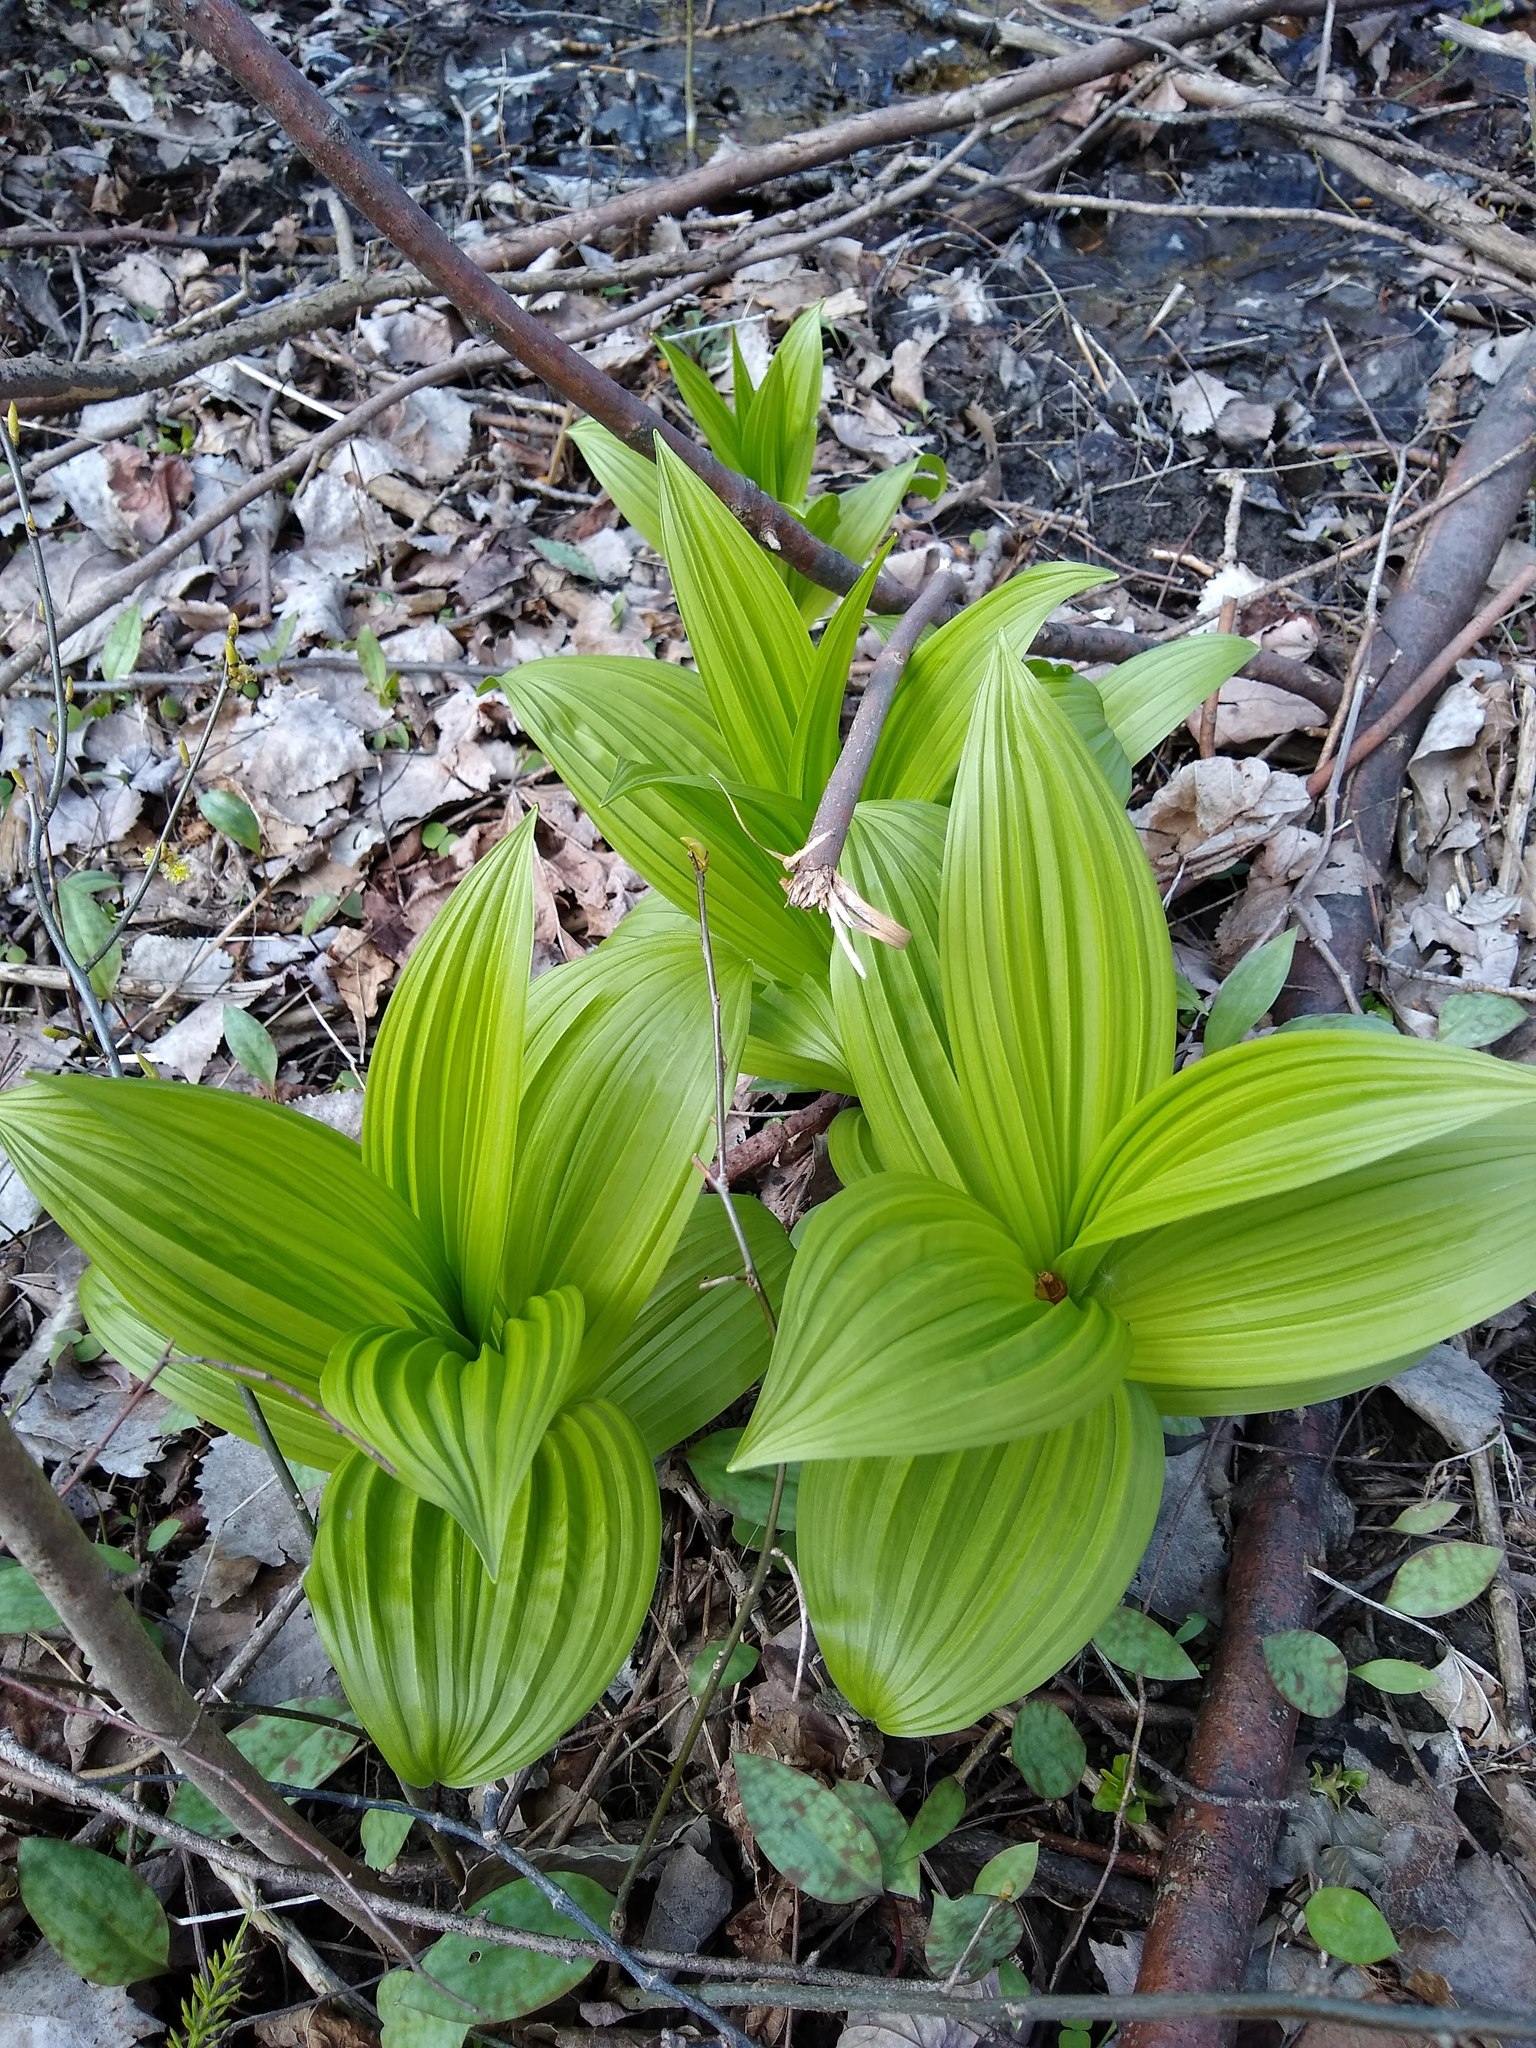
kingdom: Plantae
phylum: Tracheophyta
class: Liliopsida
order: Liliales
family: Melanthiaceae
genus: Veratrum
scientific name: Veratrum viride
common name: American false hellebore
